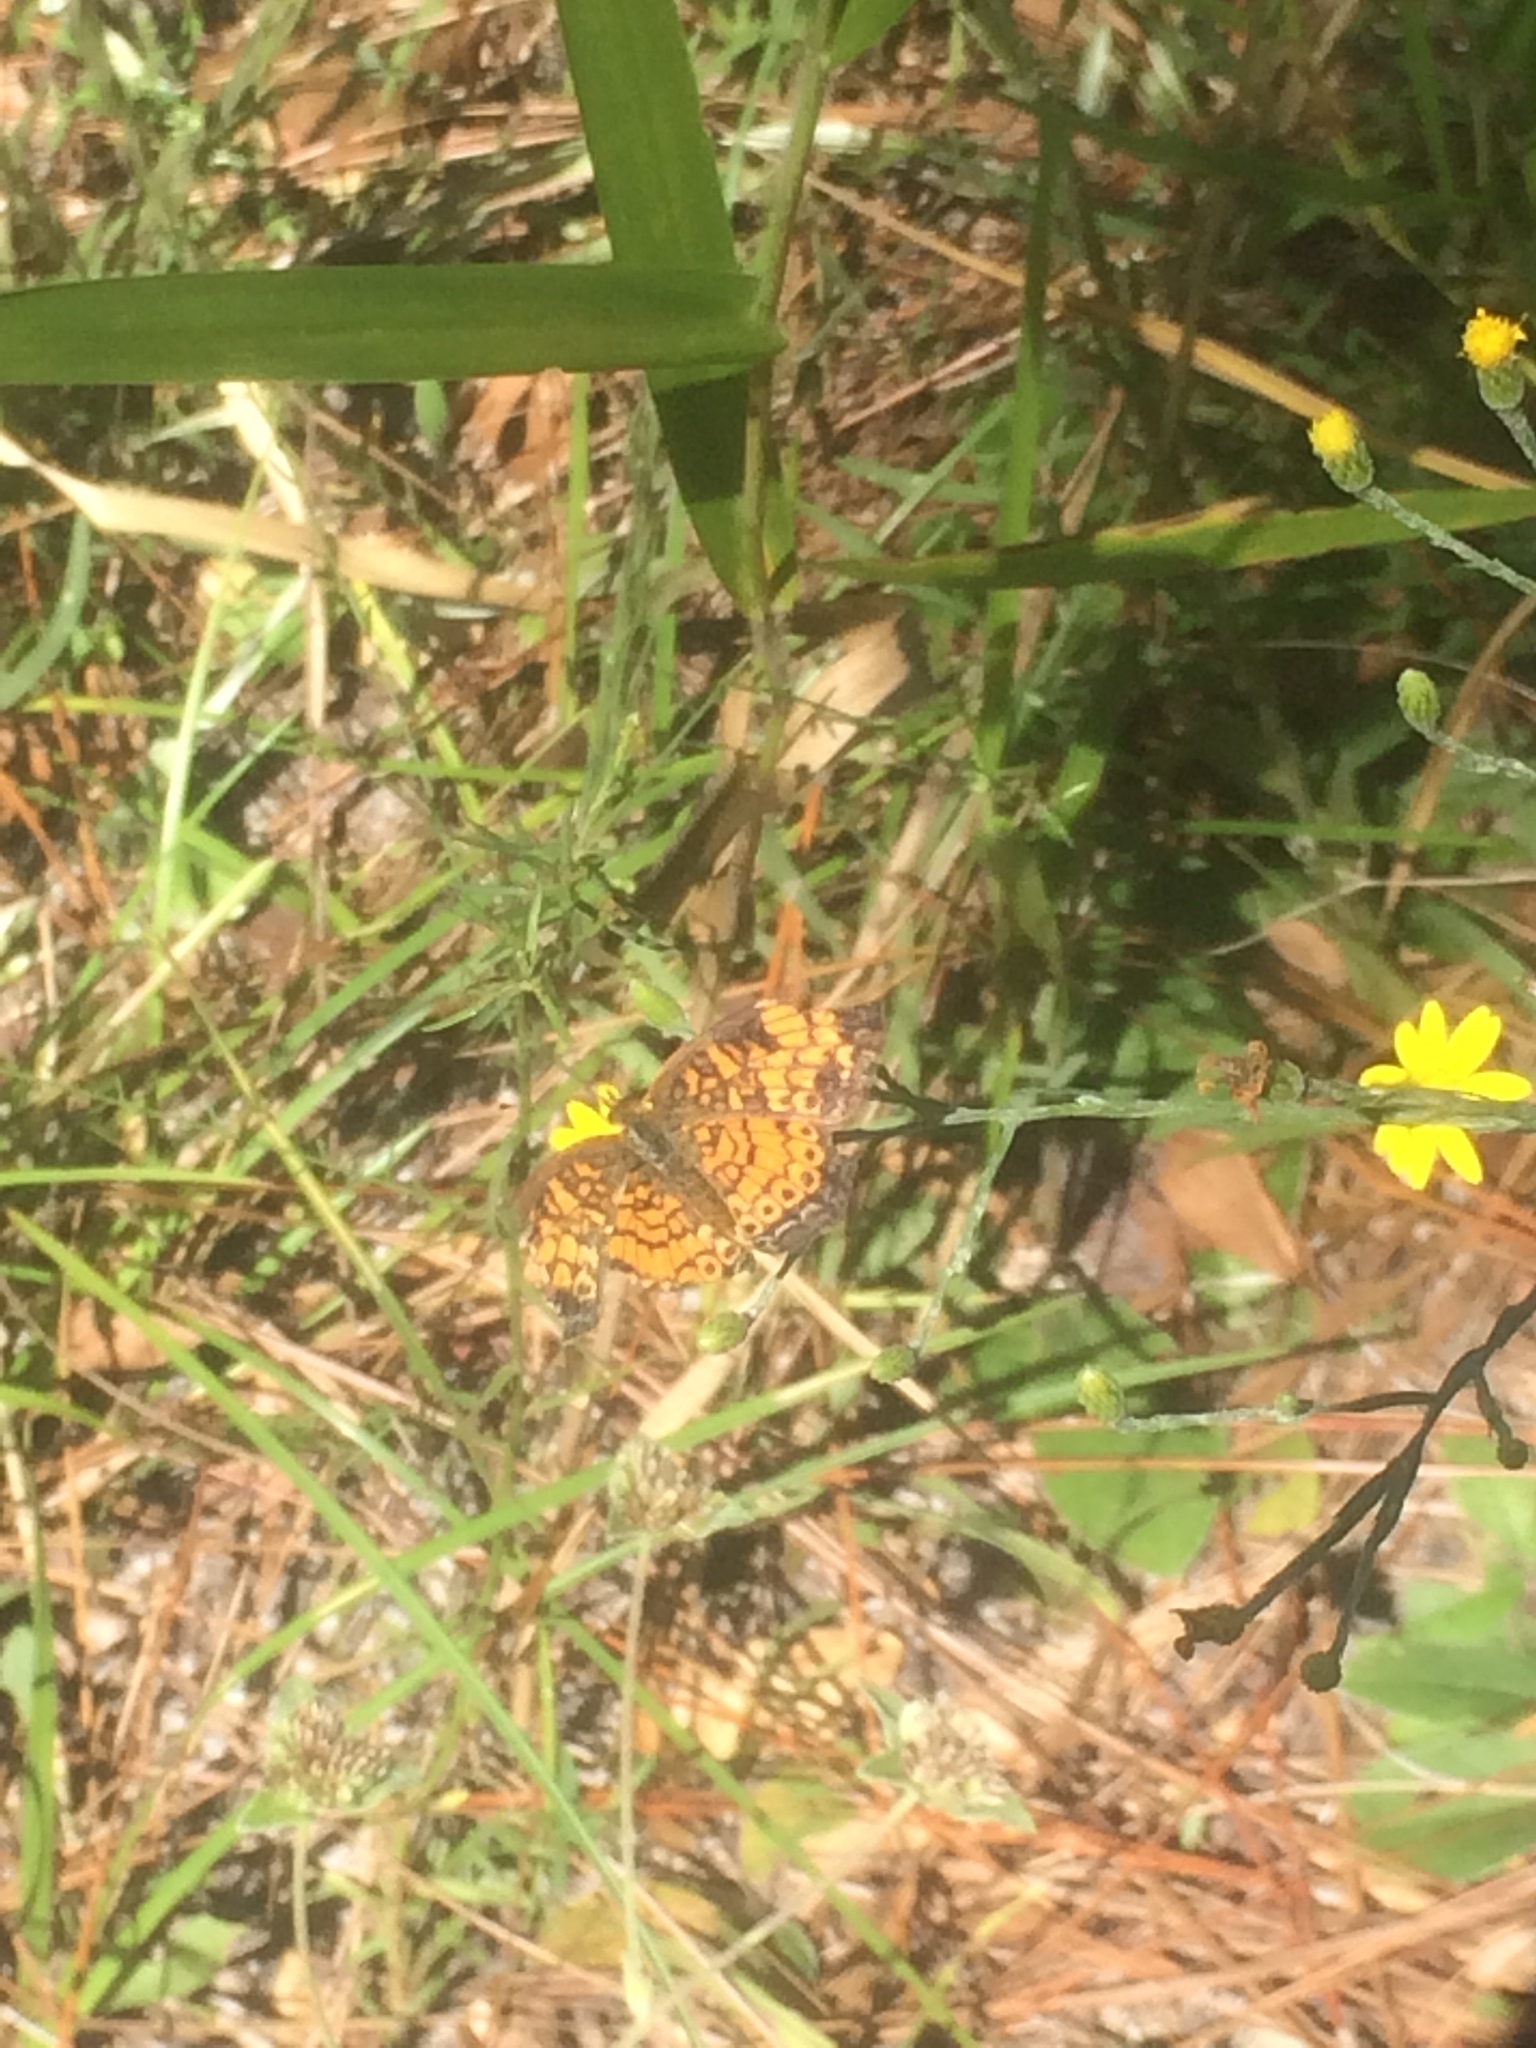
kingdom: Animalia
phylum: Arthropoda
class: Insecta
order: Lepidoptera
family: Nymphalidae
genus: Phyciodes
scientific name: Phyciodes tharos
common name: Pearl crescent
